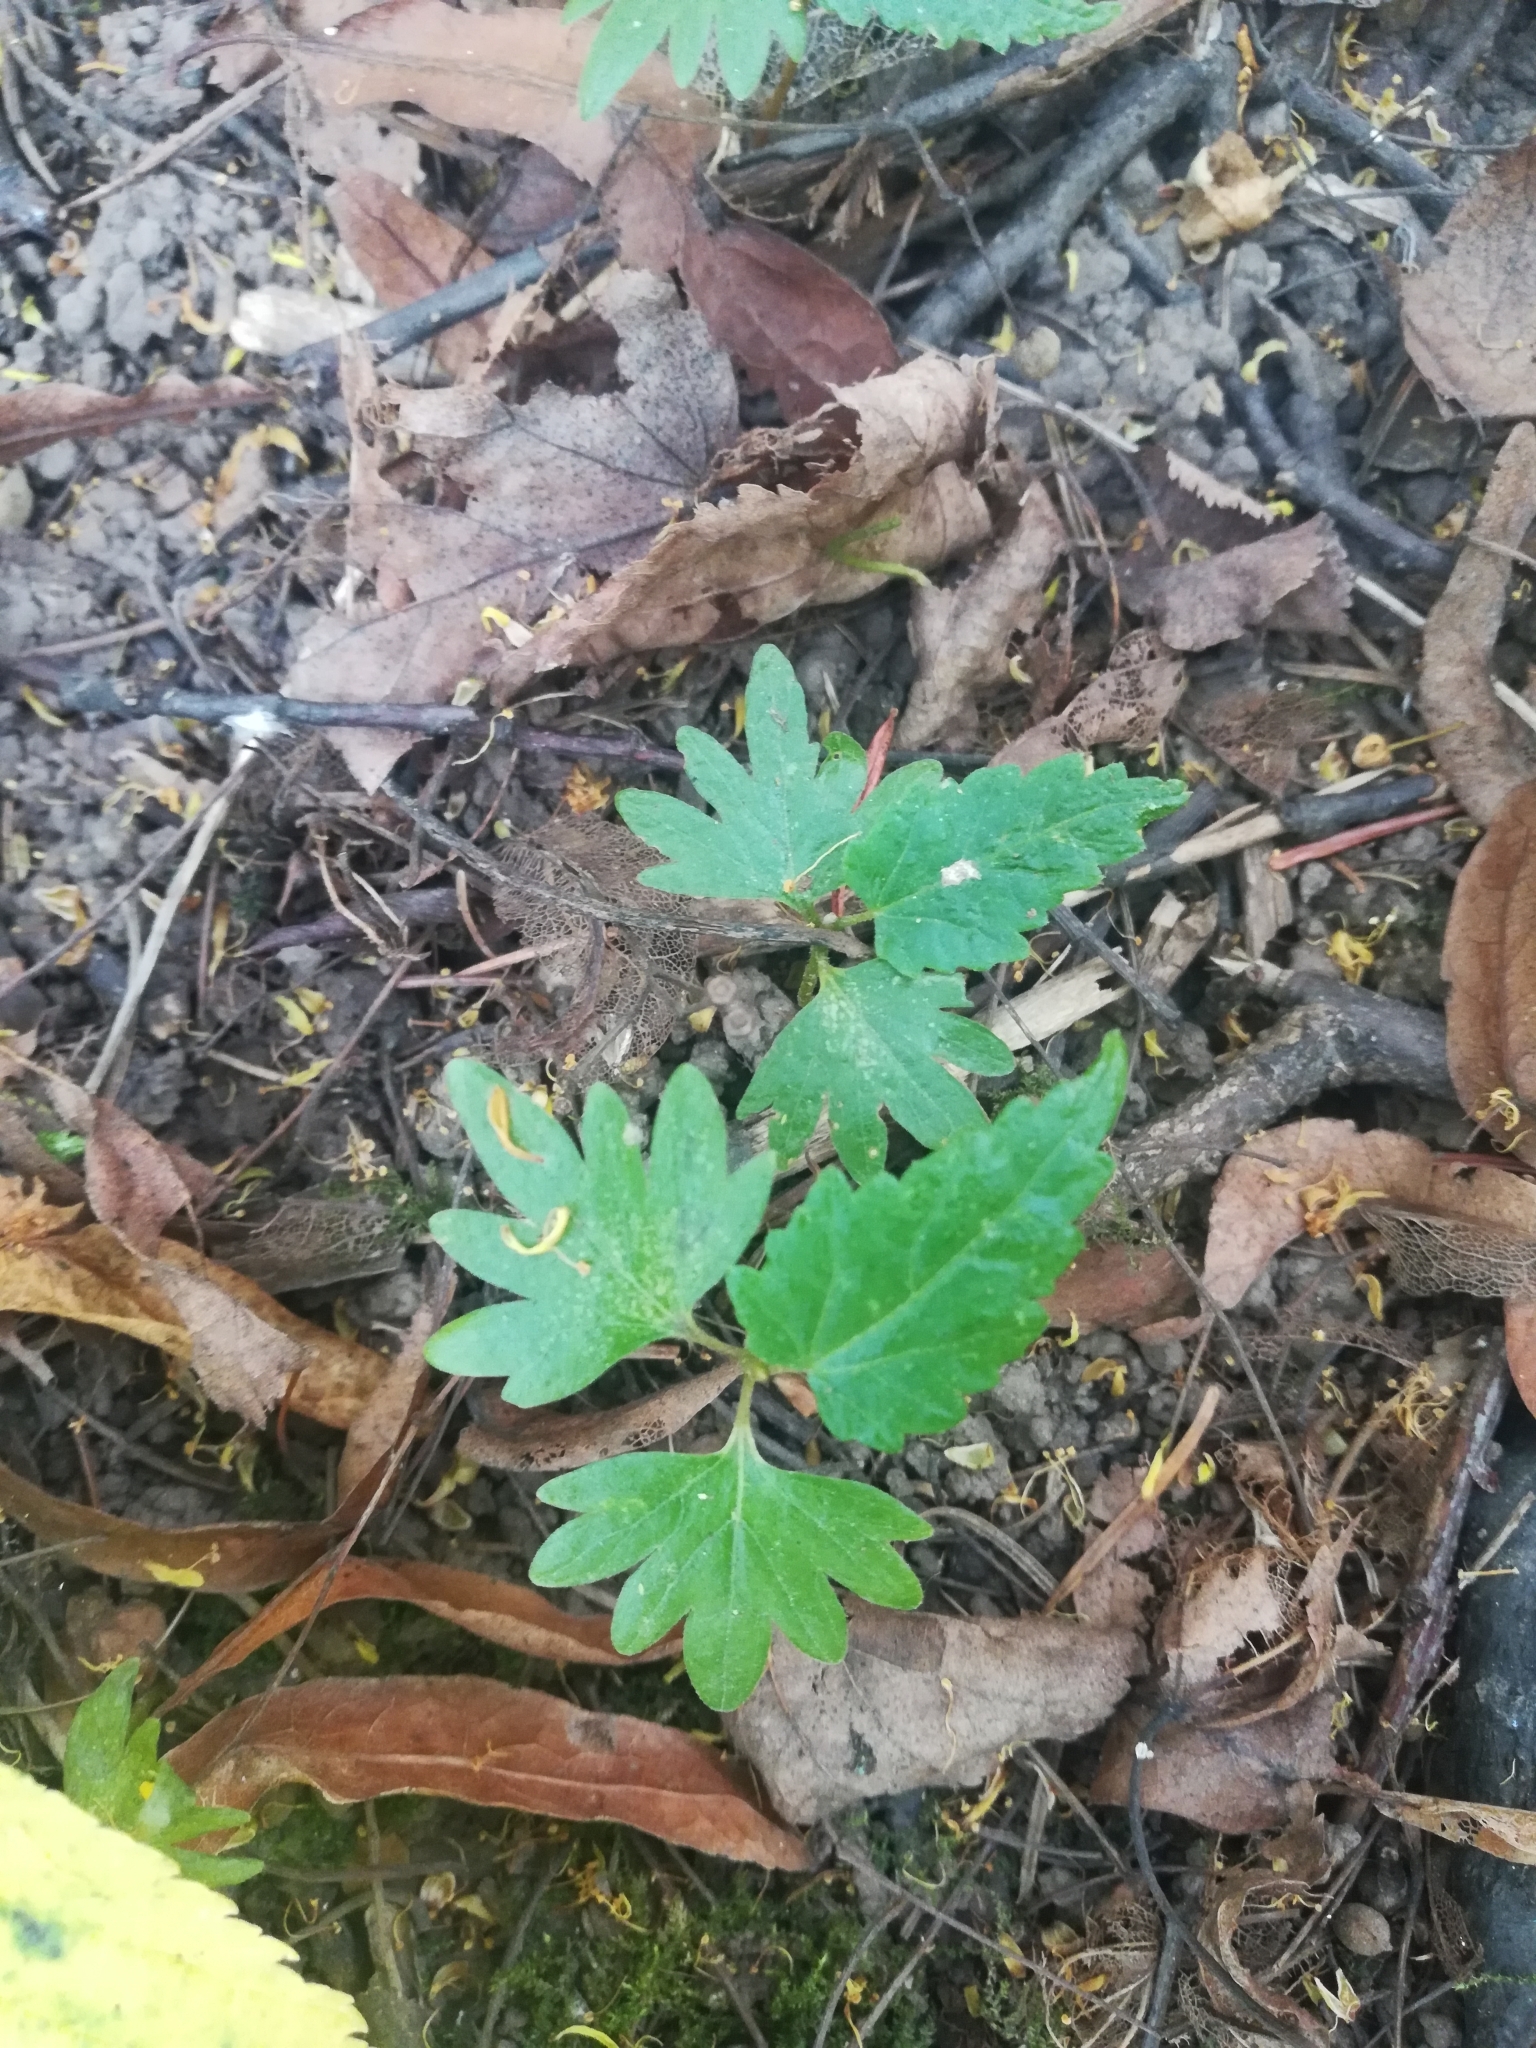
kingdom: Plantae
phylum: Tracheophyta
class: Magnoliopsida
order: Malvales
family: Malvaceae
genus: Tilia
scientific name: Tilia cordata
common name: Small-leaved lime
